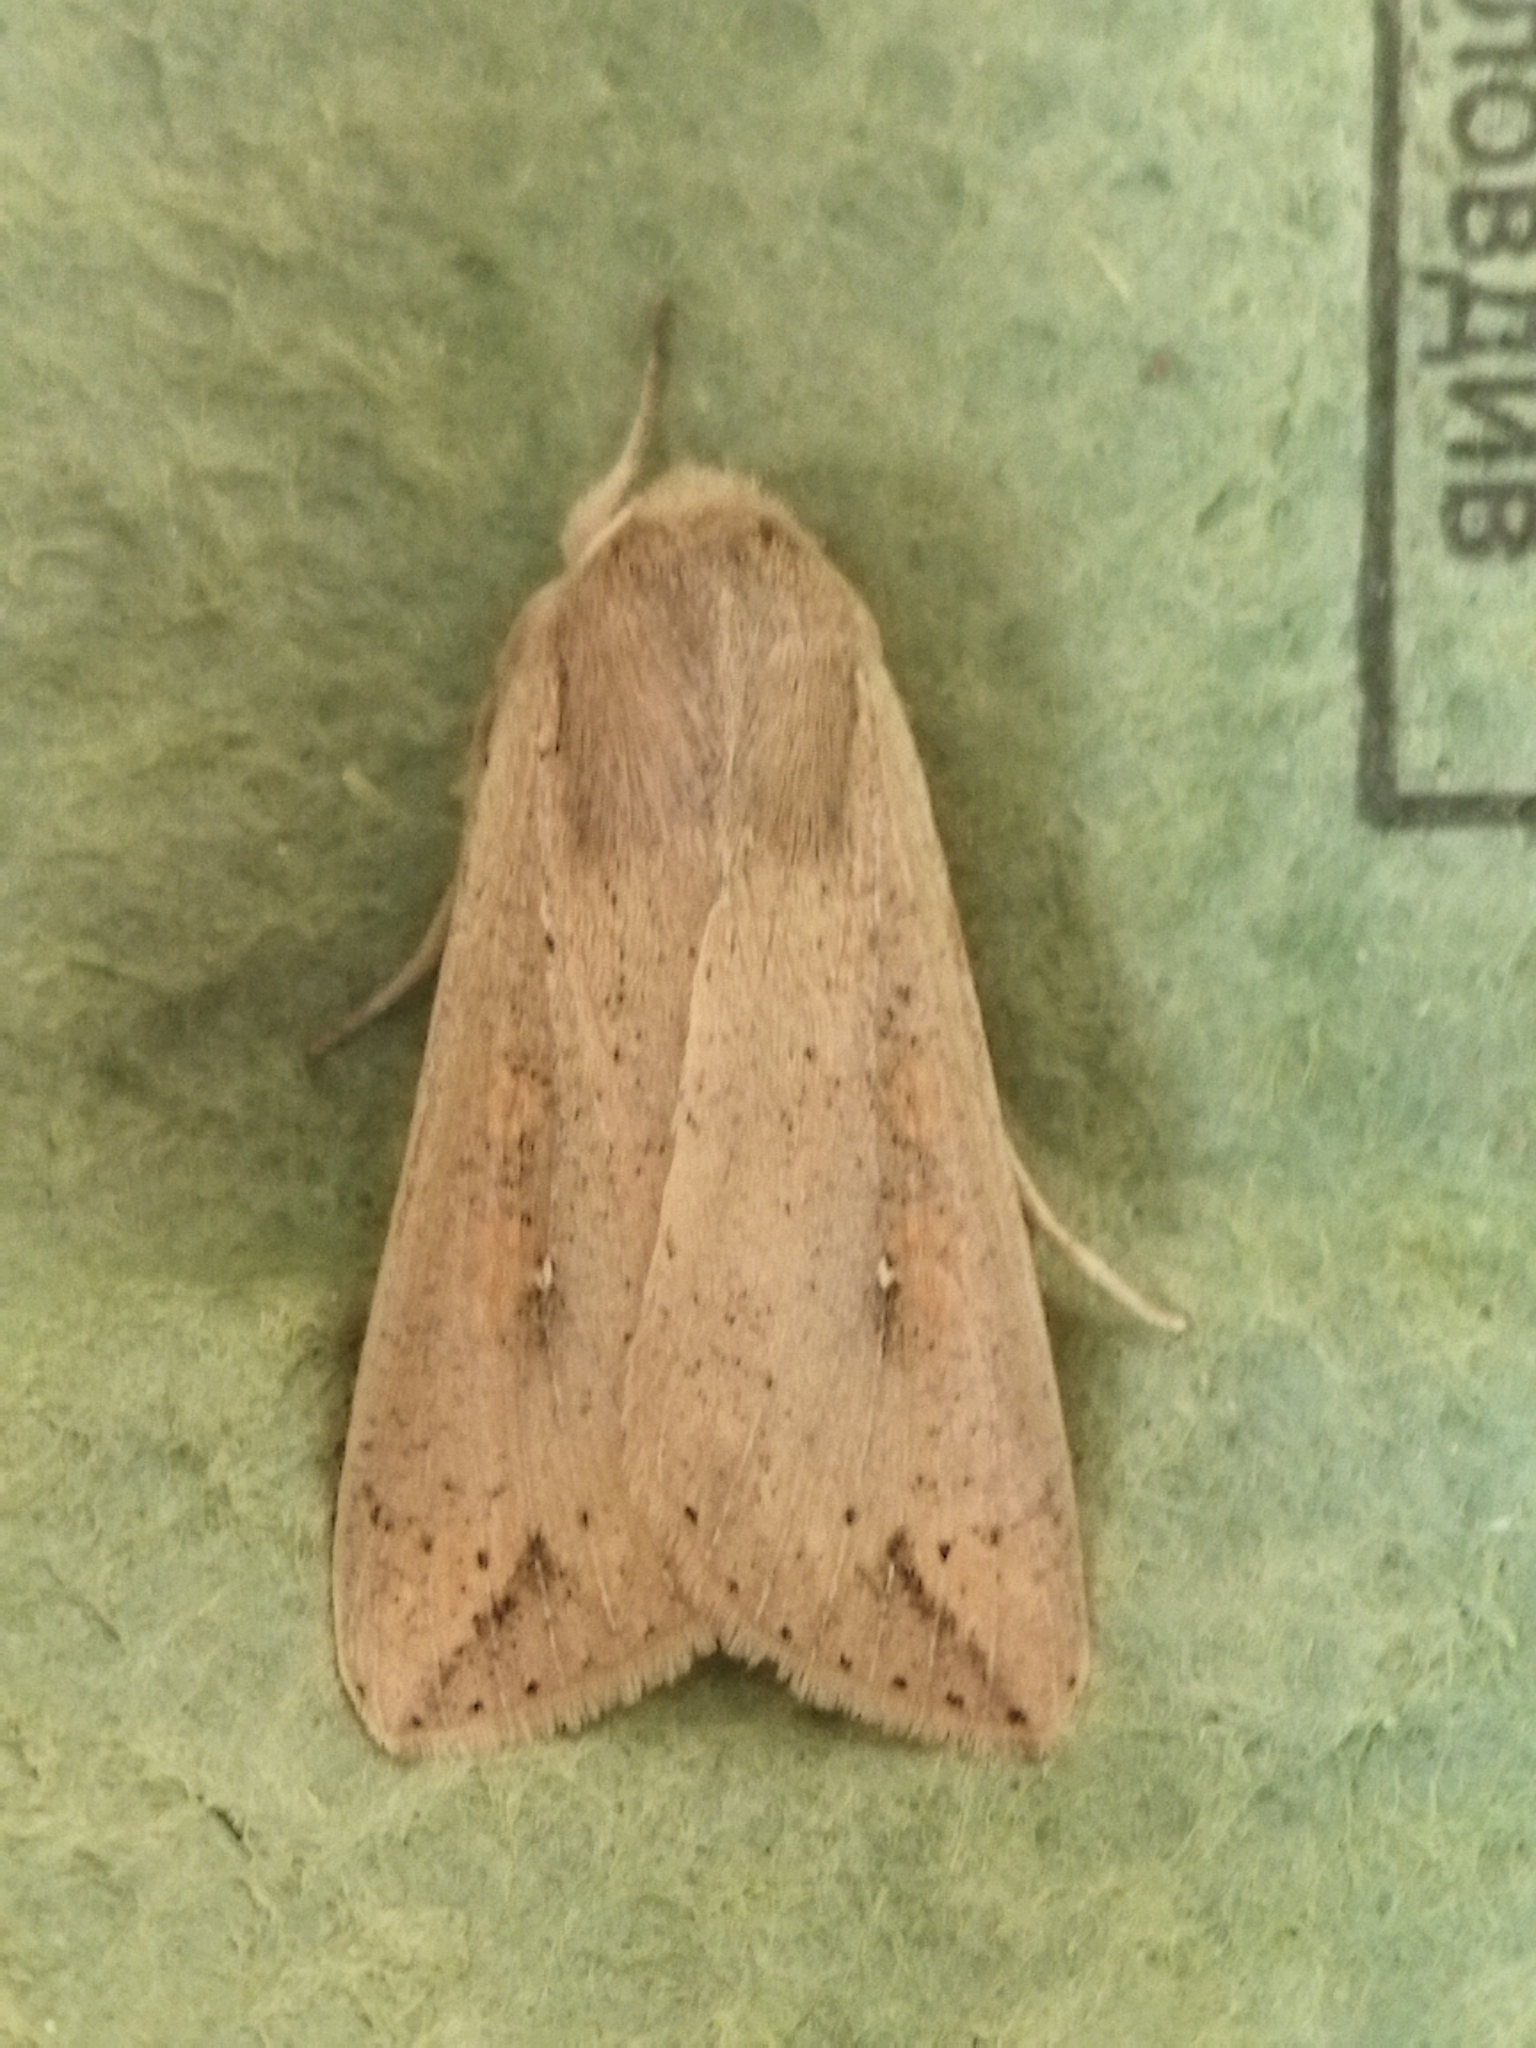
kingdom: Animalia
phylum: Arthropoda
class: Insecta
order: Lepidoptera
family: Noctuidae
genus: Mythimna
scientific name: Mythimna unipuncta
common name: White-speck
